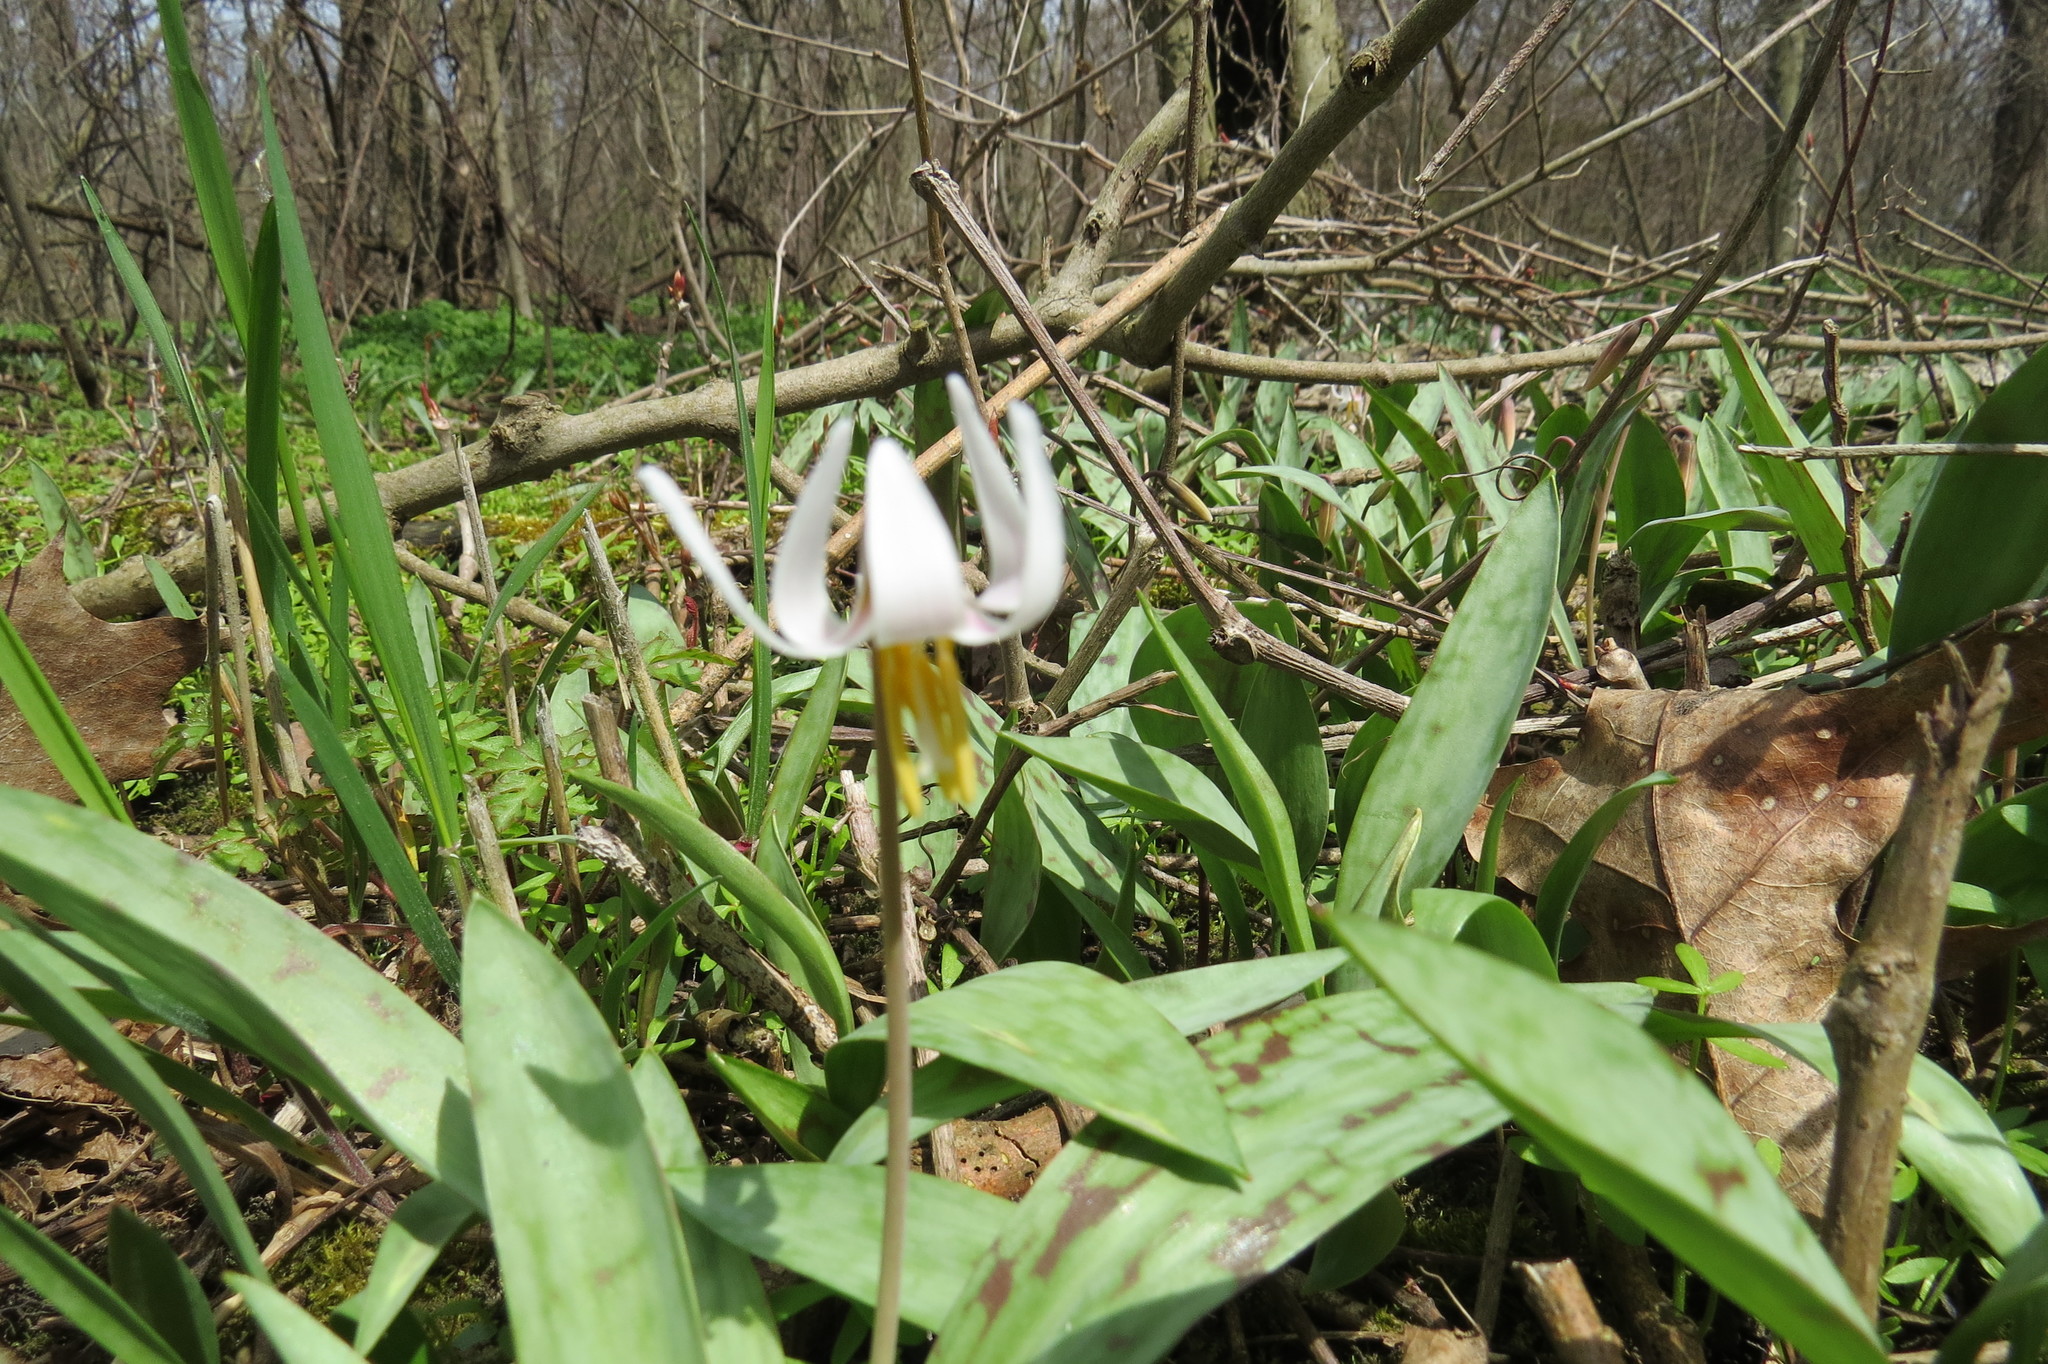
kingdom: Plantae
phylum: Tracheophyta
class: Liliopsida
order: Liliales
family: Liliaceae
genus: Erythronium
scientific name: Erythronium albidum
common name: White trout-lily
